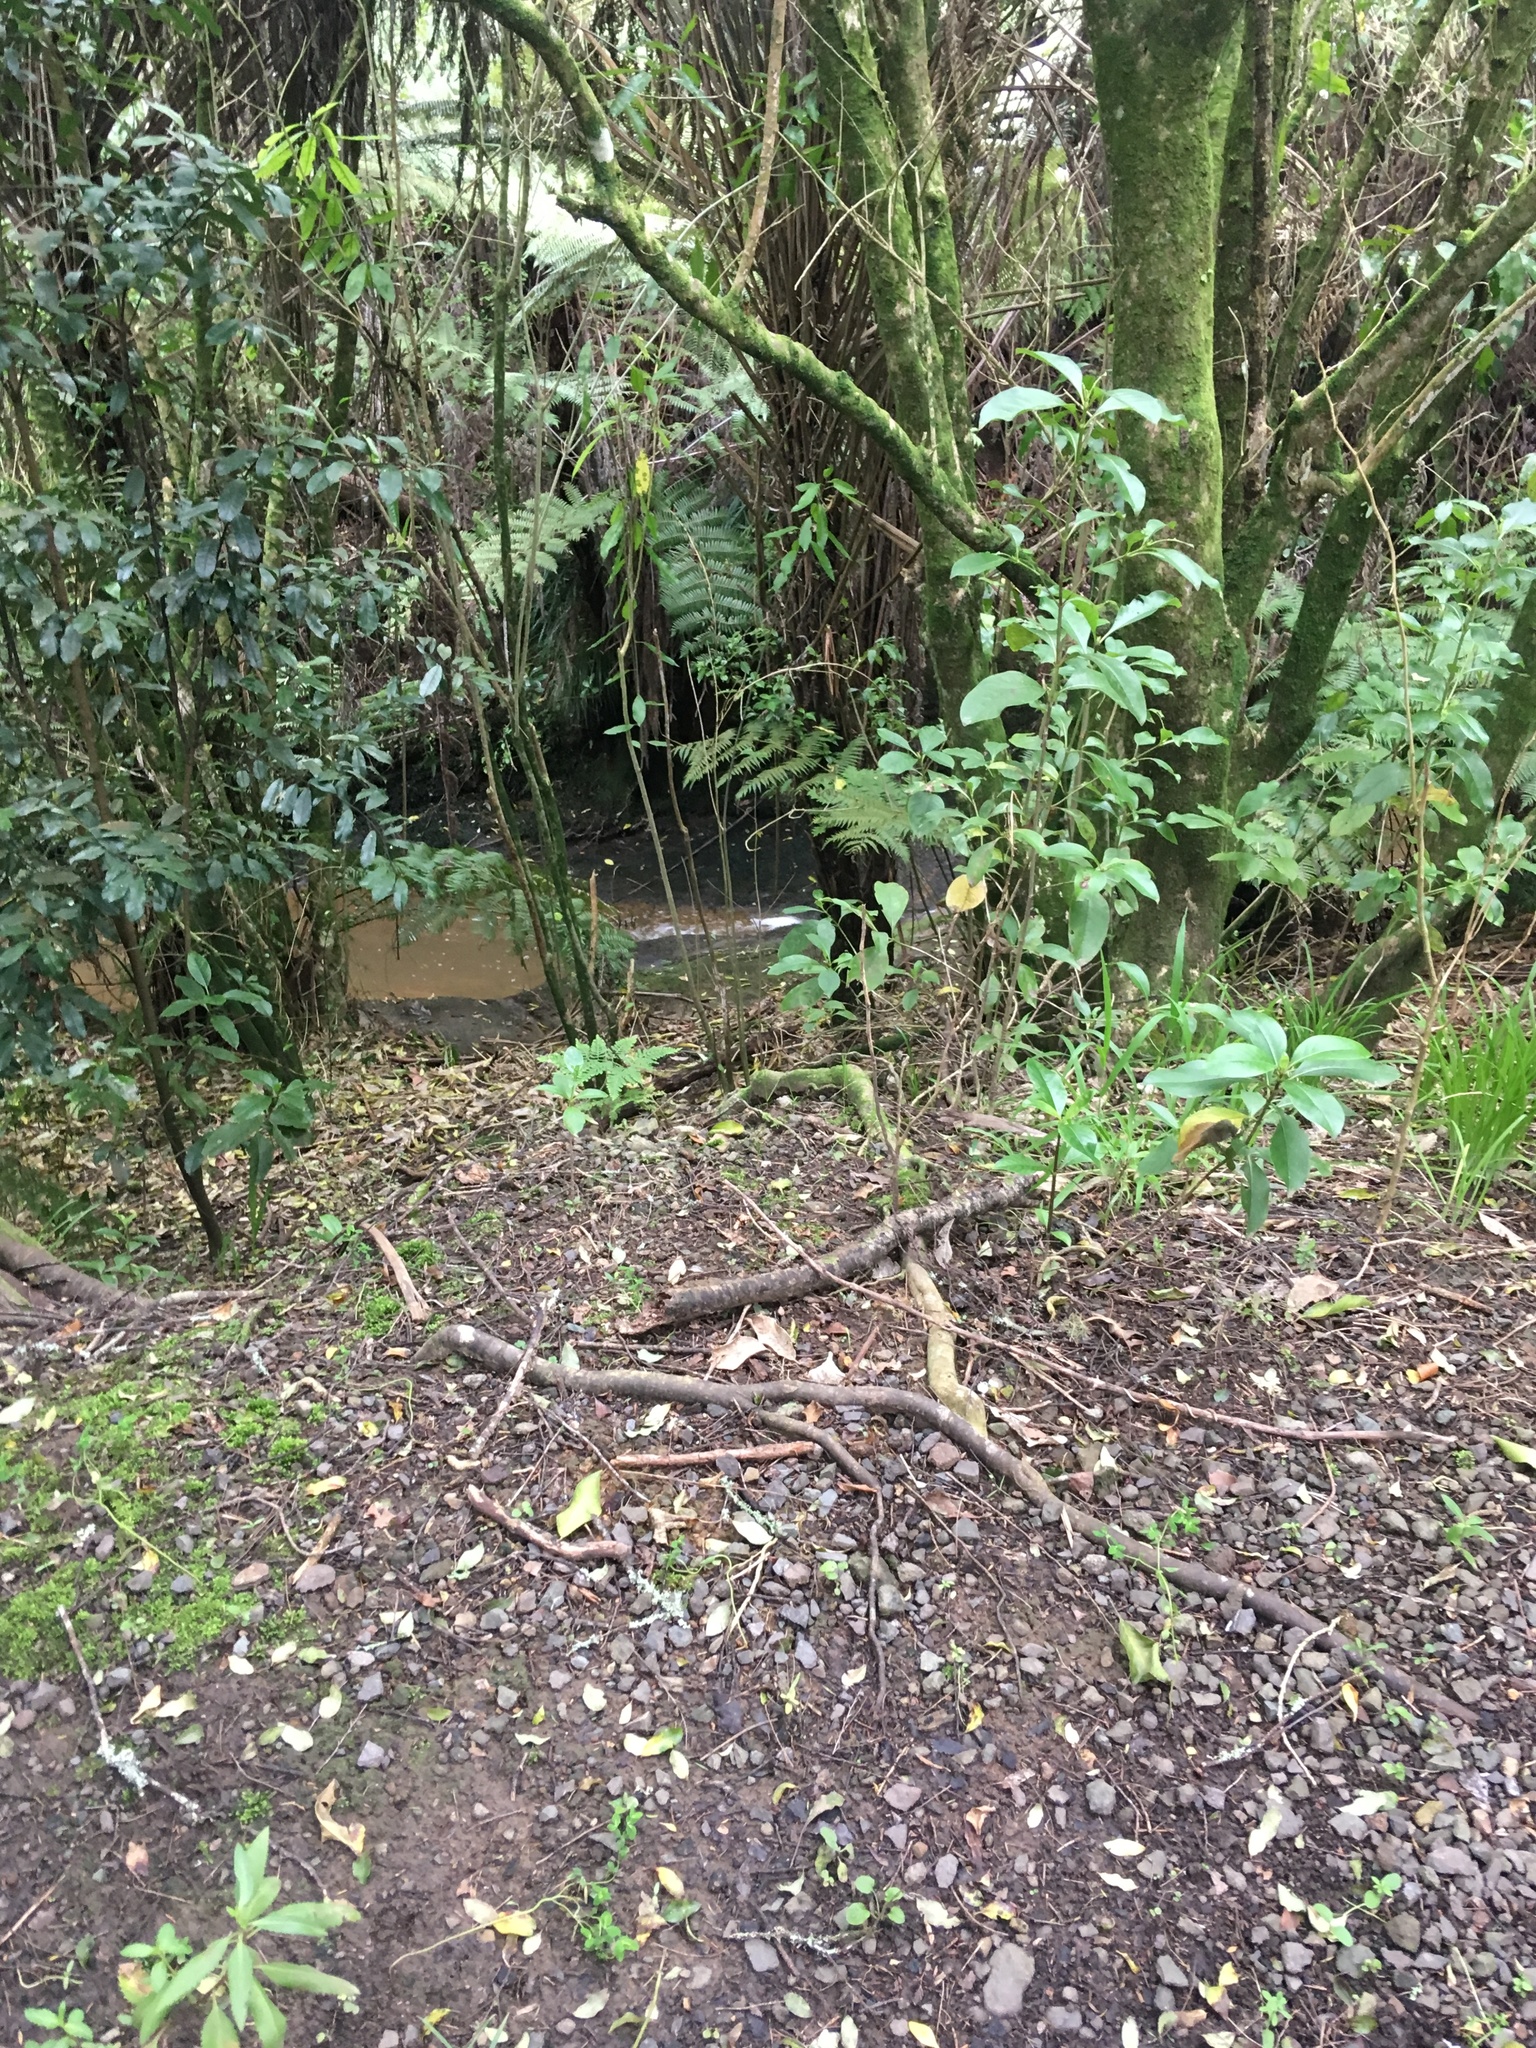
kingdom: Plantae
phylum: Tracheophyta
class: Magnoliopsida
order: Malpighiales
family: Violaceae
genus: Melicytus
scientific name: Melicytus ramiflorus
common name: Mahoe
